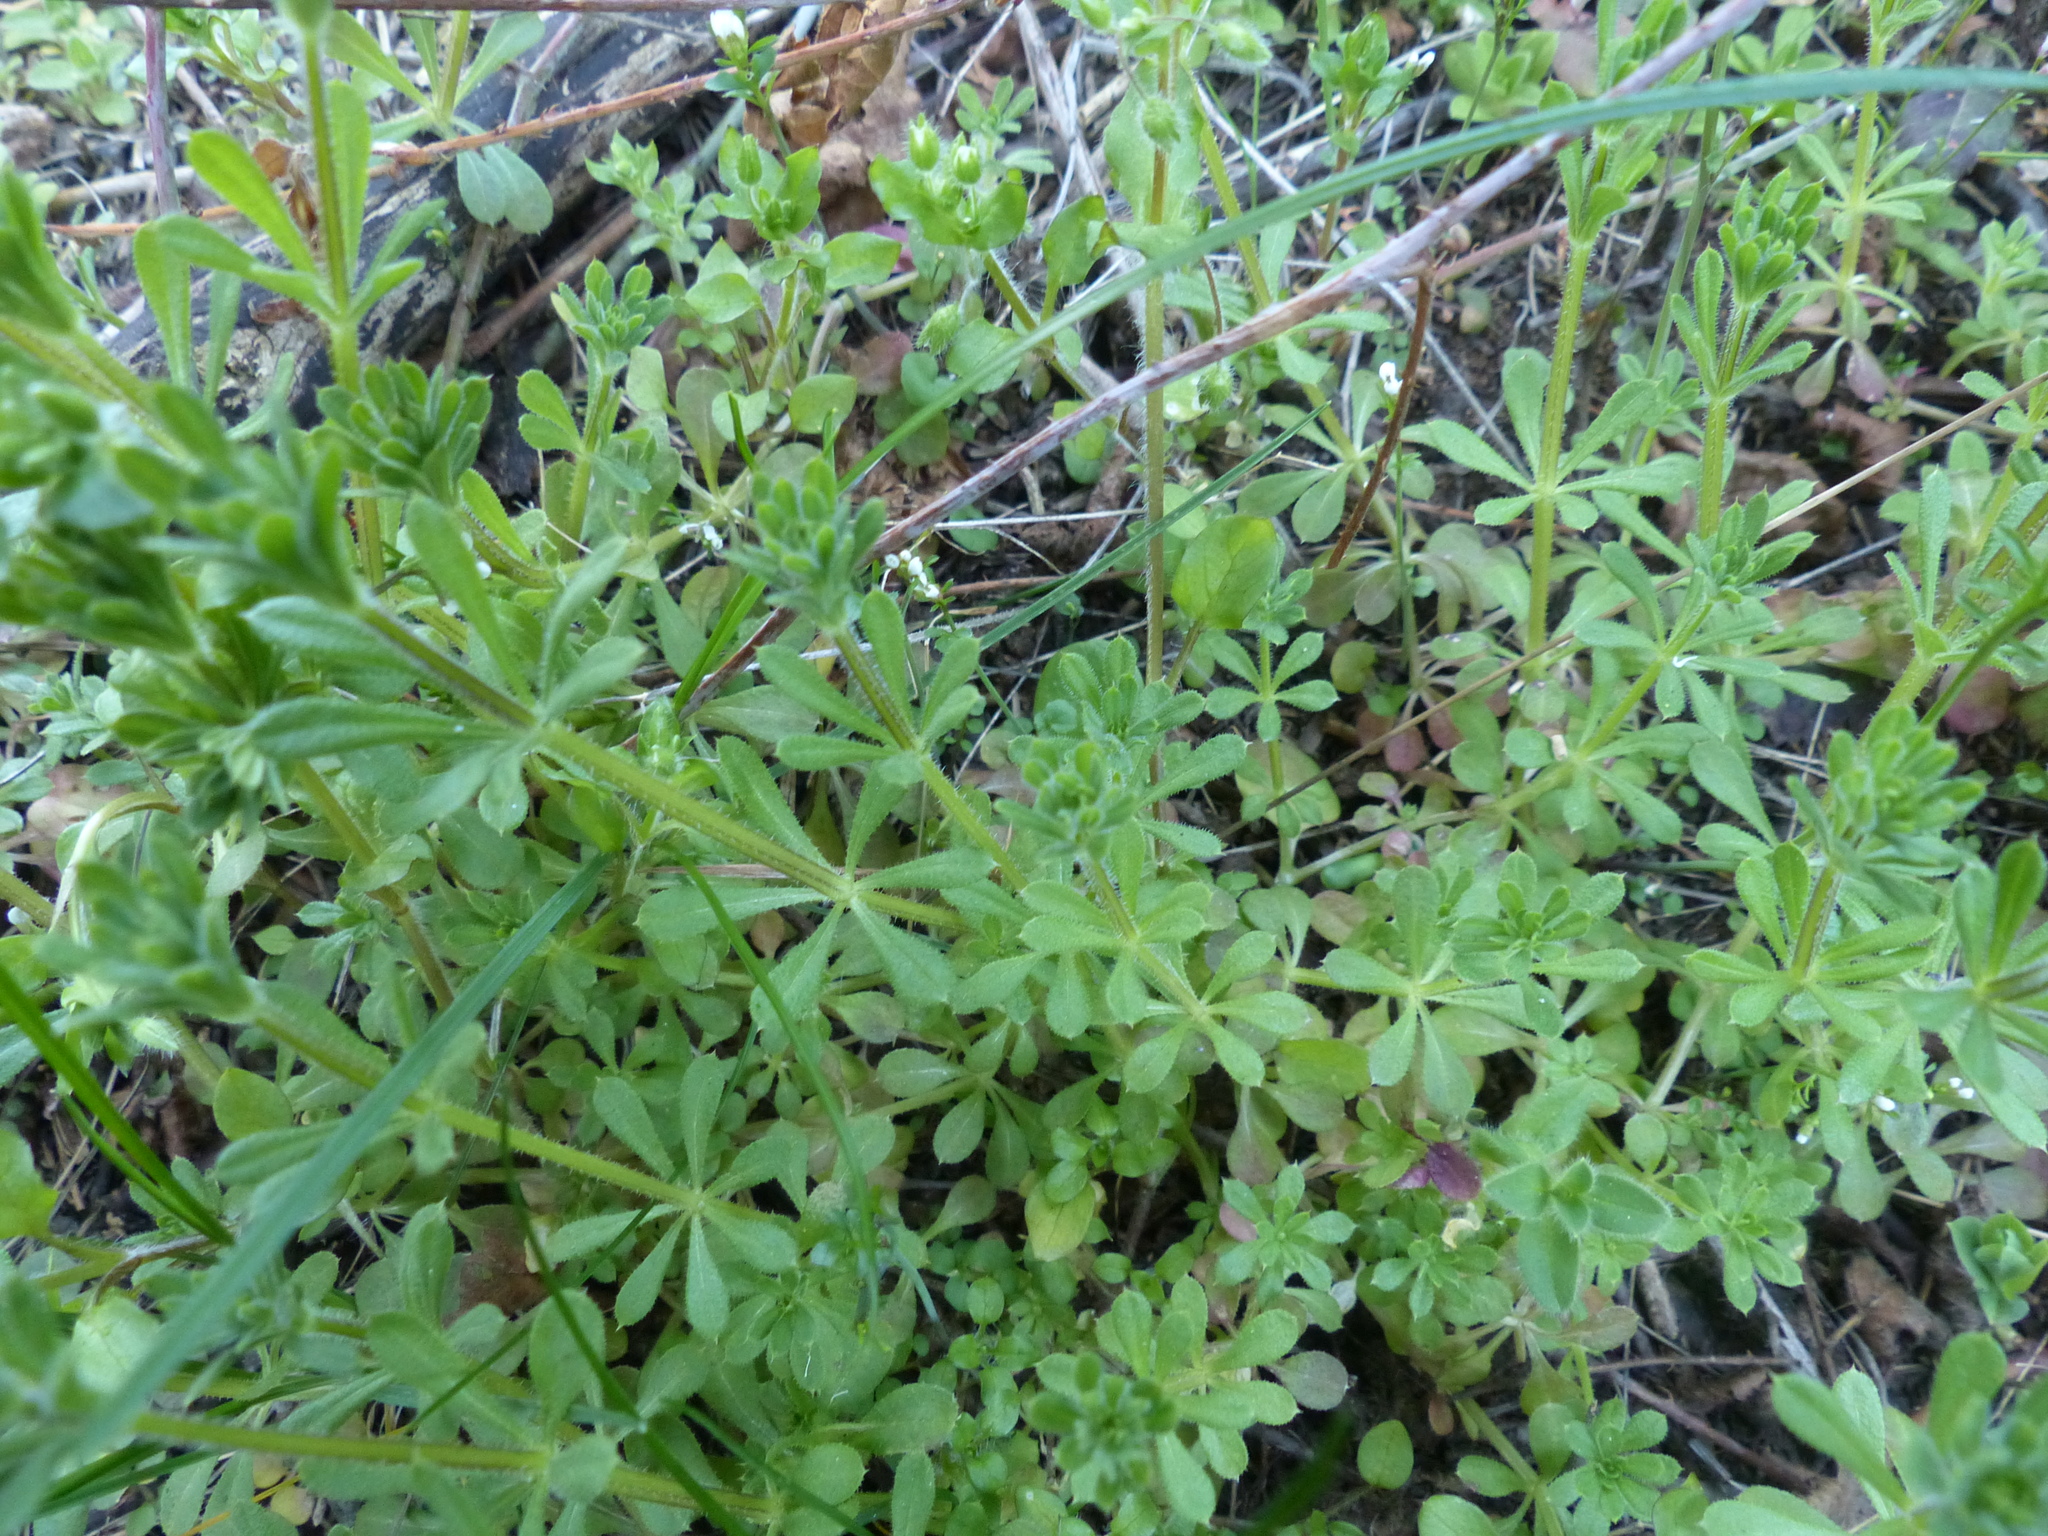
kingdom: Plantae
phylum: Tracheophyta
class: Magnoliopsida
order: Gentianales
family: Rubiaceae
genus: Galium
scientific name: Galium aparine
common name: Cleavers
